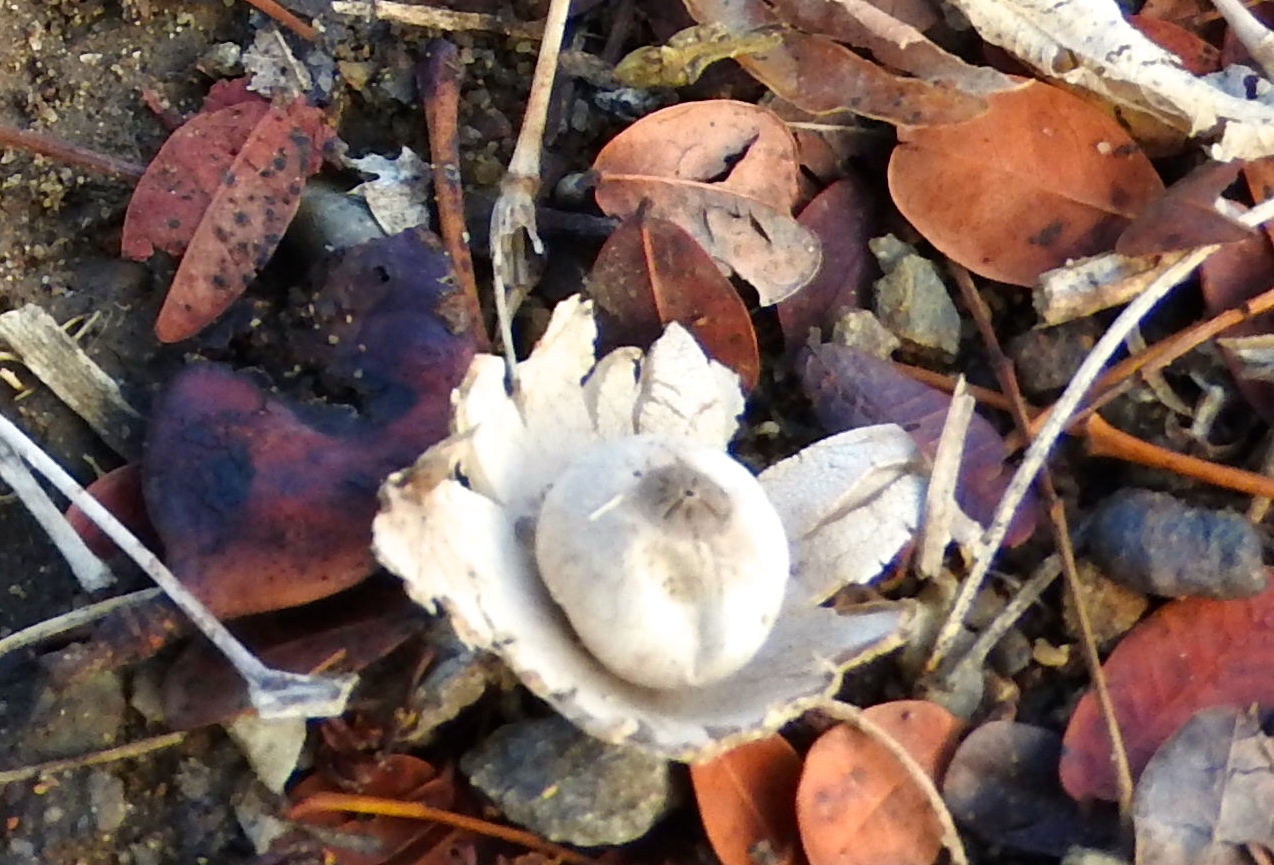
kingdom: Fungi
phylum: Basidiomycota
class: Agaricomycetes
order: Geastrales
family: Geastraceae
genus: Geastrum
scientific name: Geastrum
